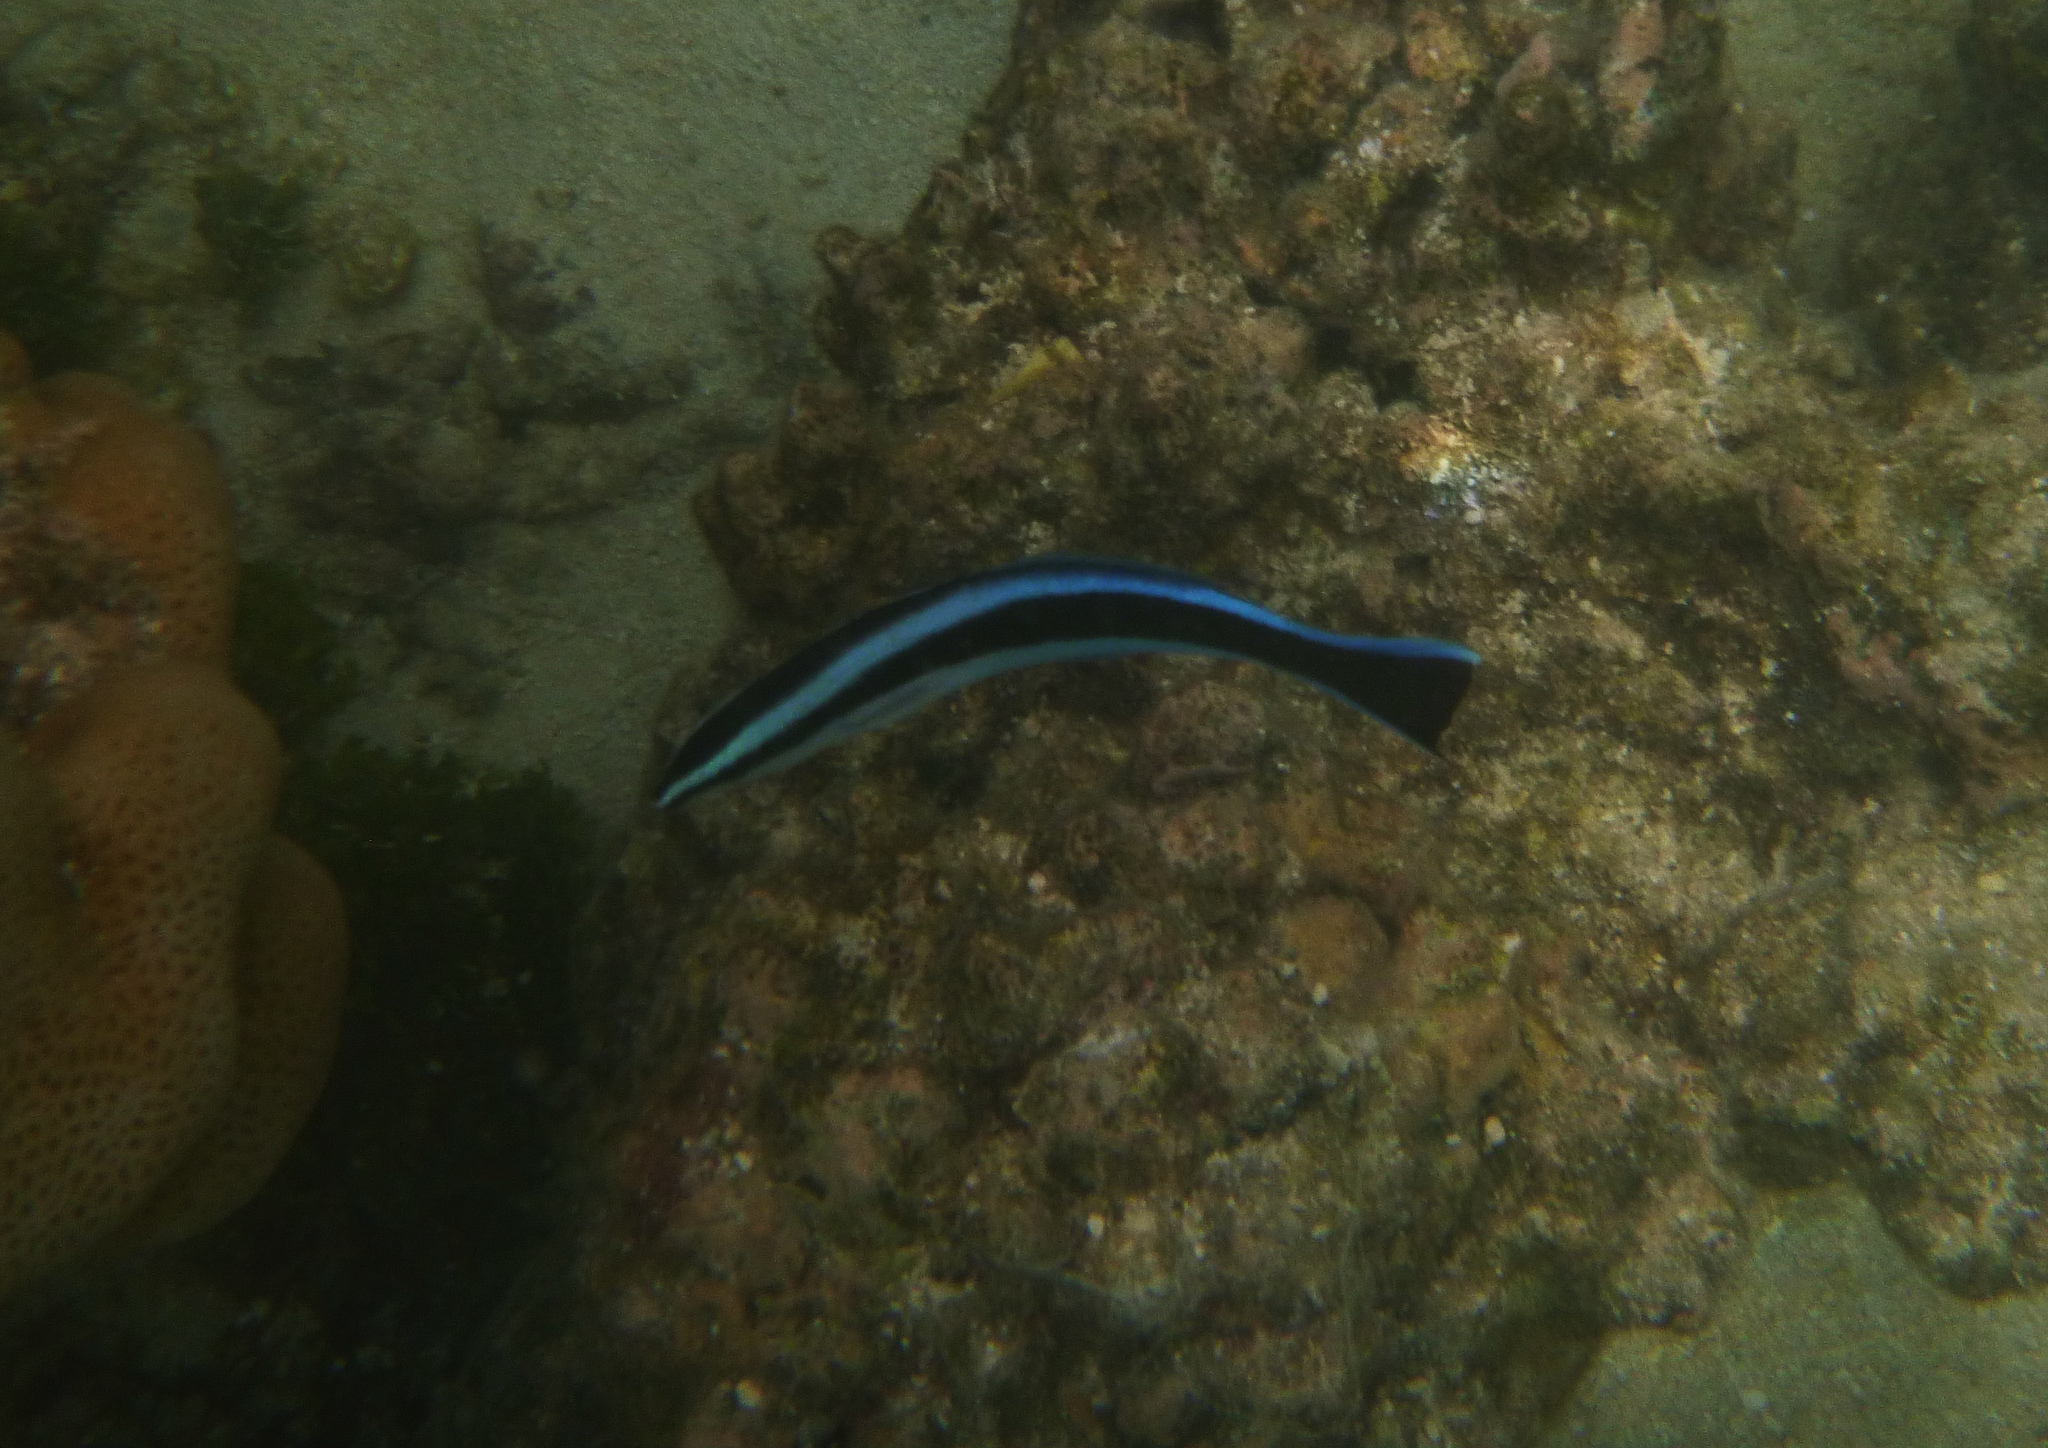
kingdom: Animalia
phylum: Chordata
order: Perciformes
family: Labridae
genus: Labroides
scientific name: Labroides dimidiatus
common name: Blue diesel wrasse
